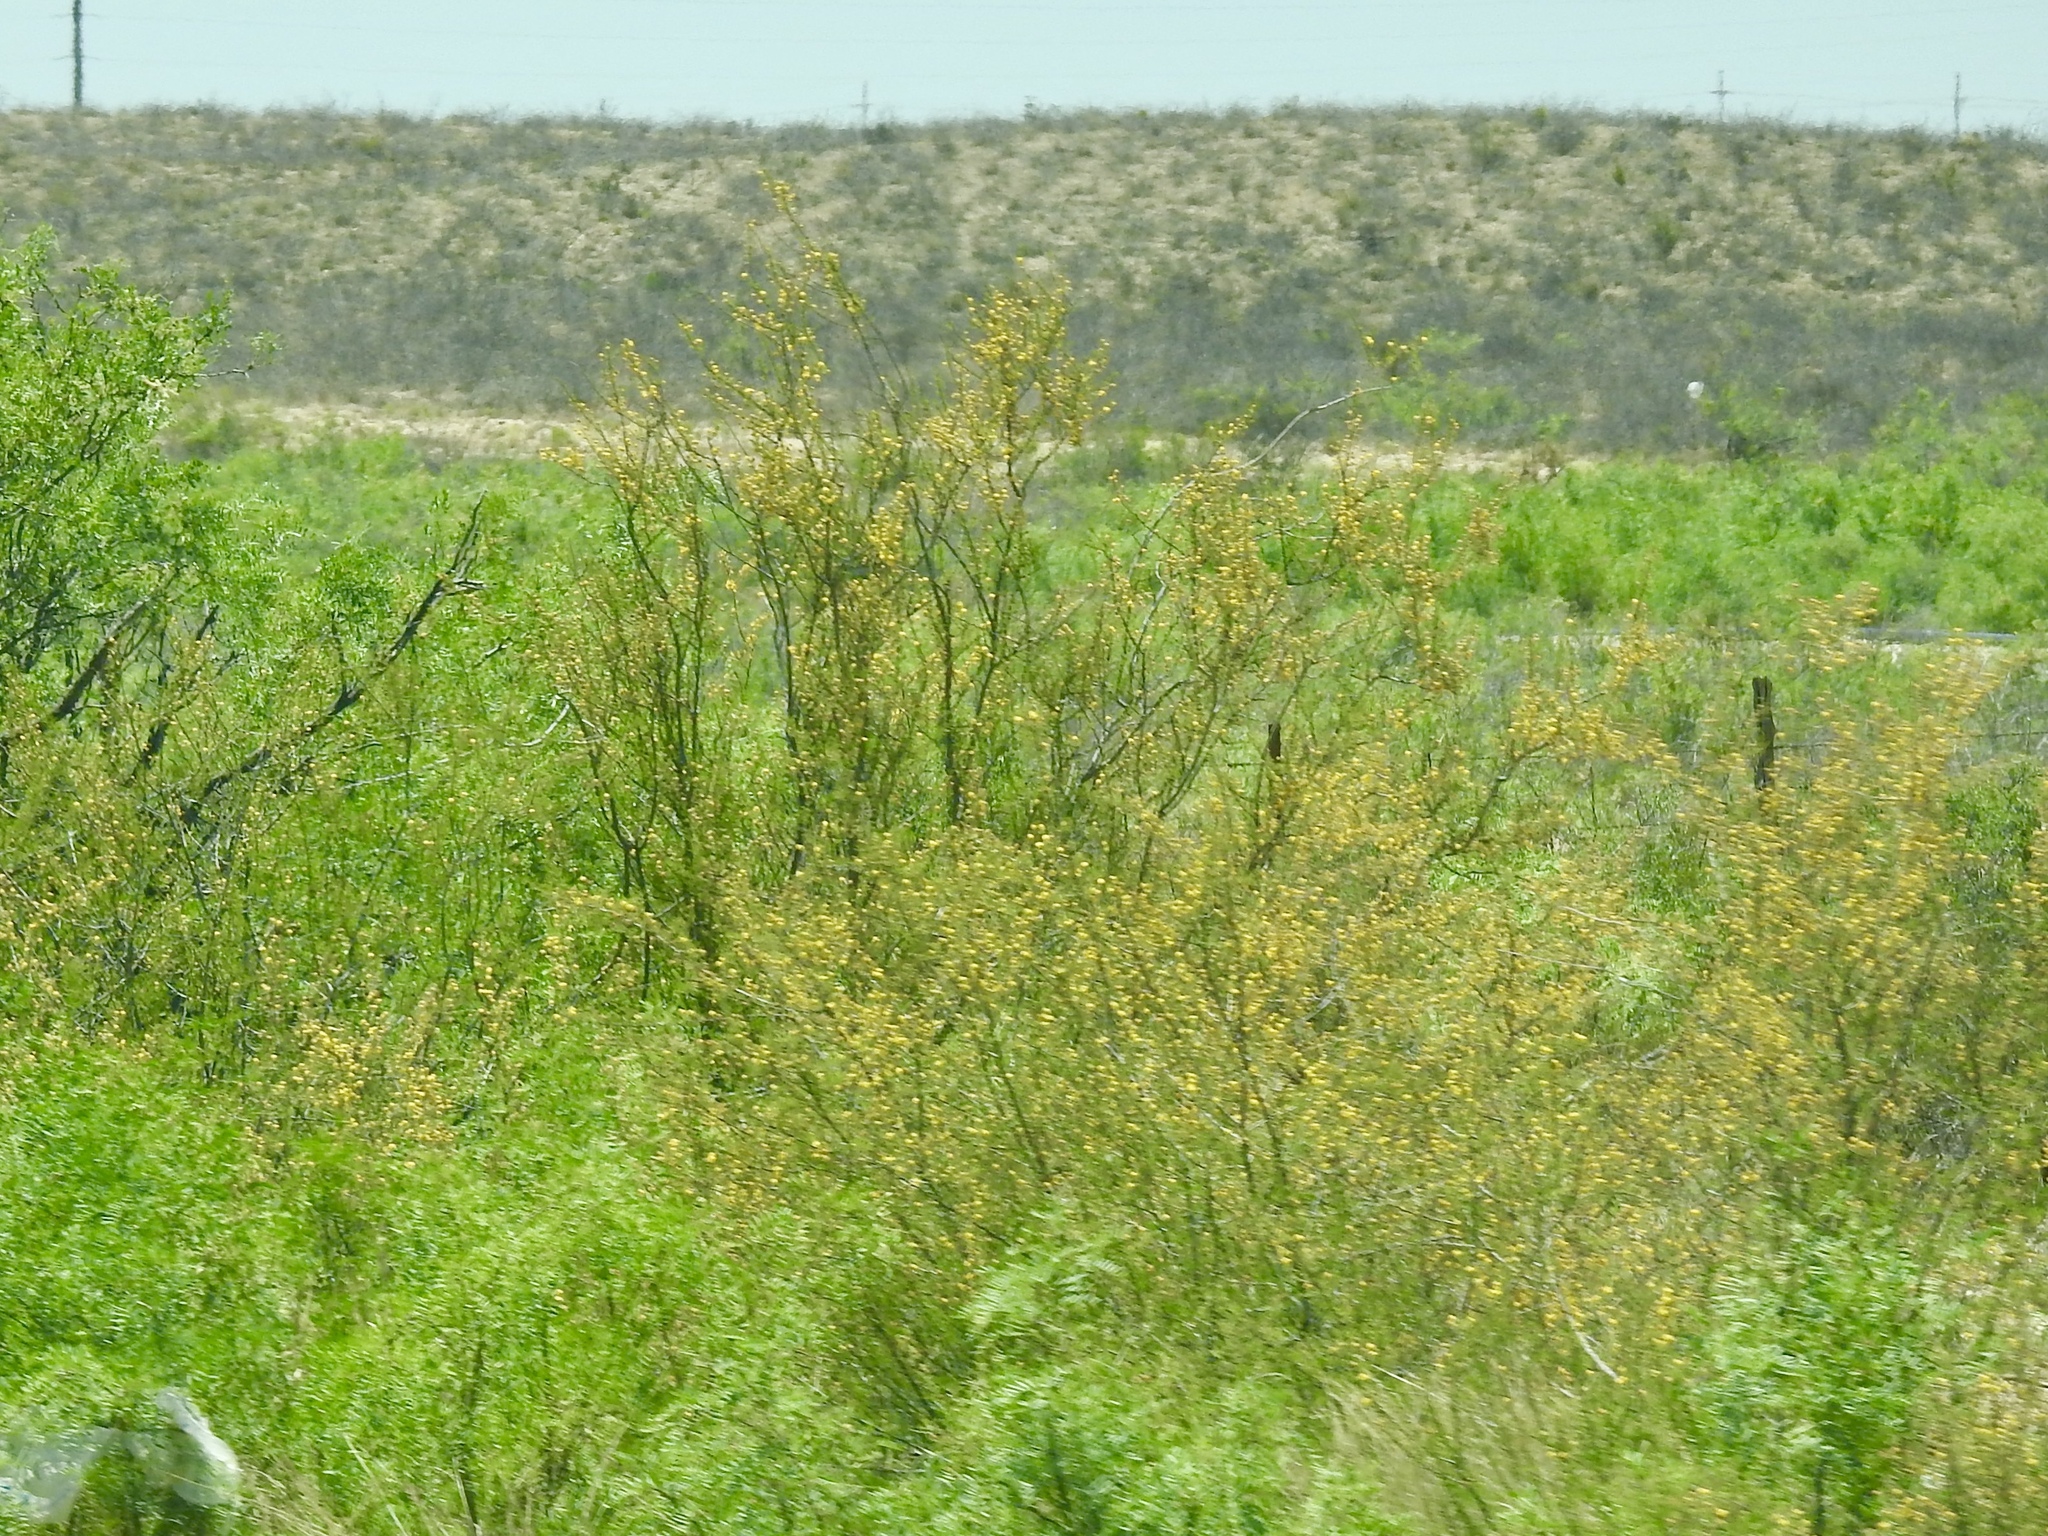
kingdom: Plantae
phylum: Tracheophyta
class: Magnoliopsida
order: Zygophyllales
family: Zygophyllaceae
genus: Larrea
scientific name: Larrea tridentata
